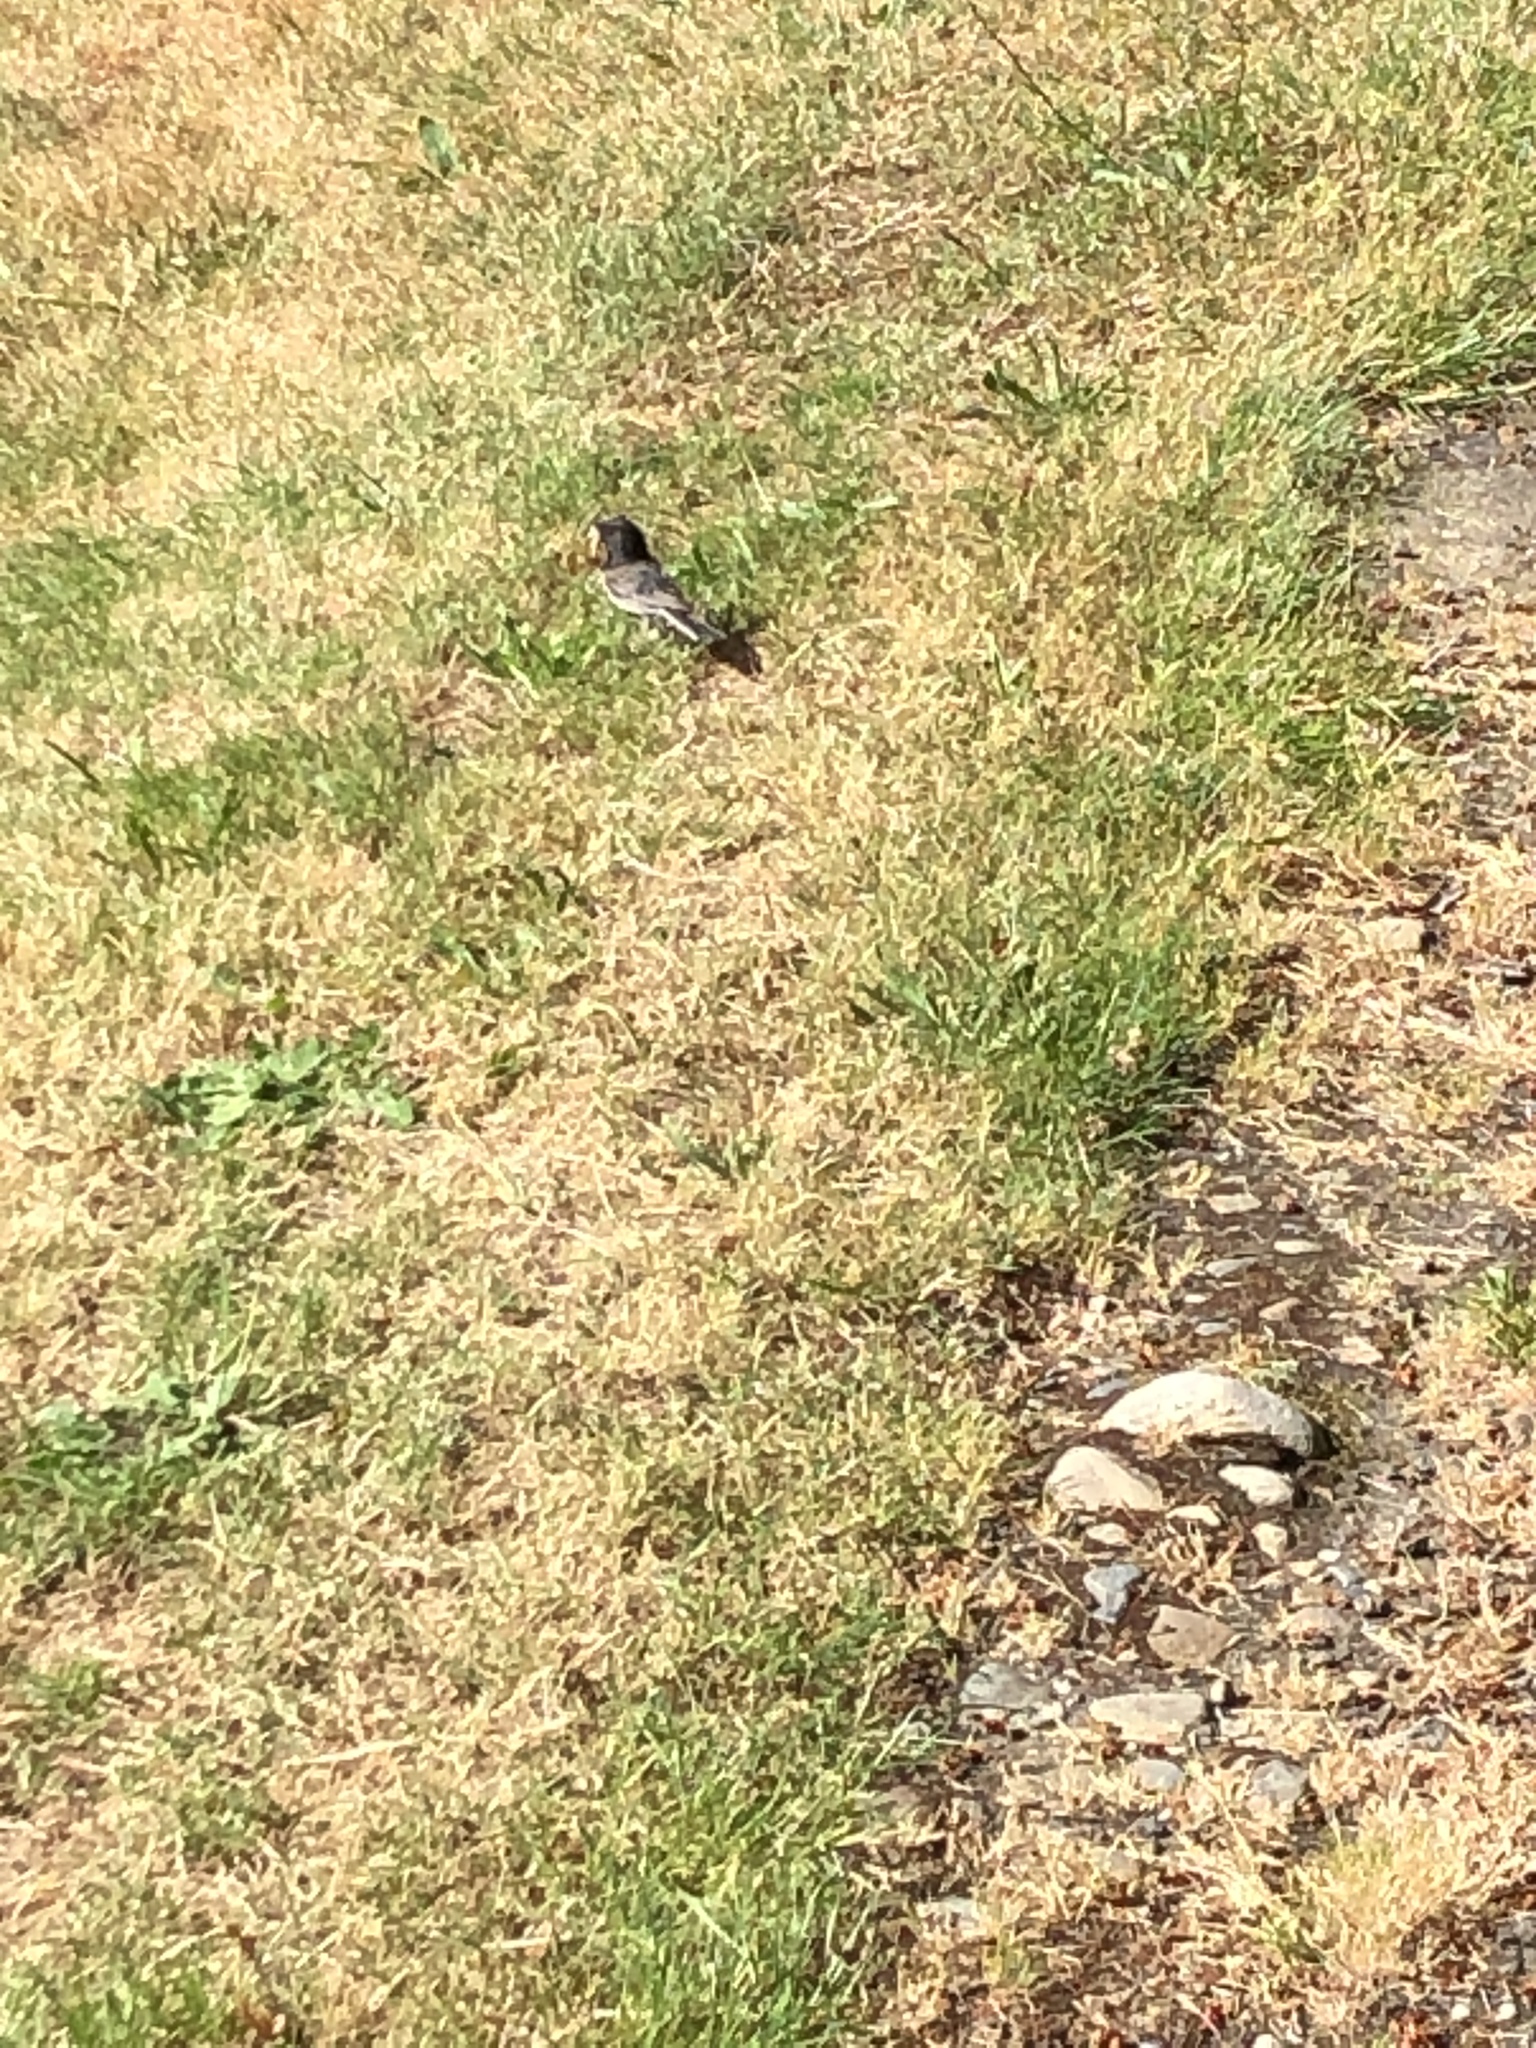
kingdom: Animalia
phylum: Chordata
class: Aves
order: Passeriformes
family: Passerellidae
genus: Junco
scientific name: Junco hyemalis
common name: Dark-eyed junco
